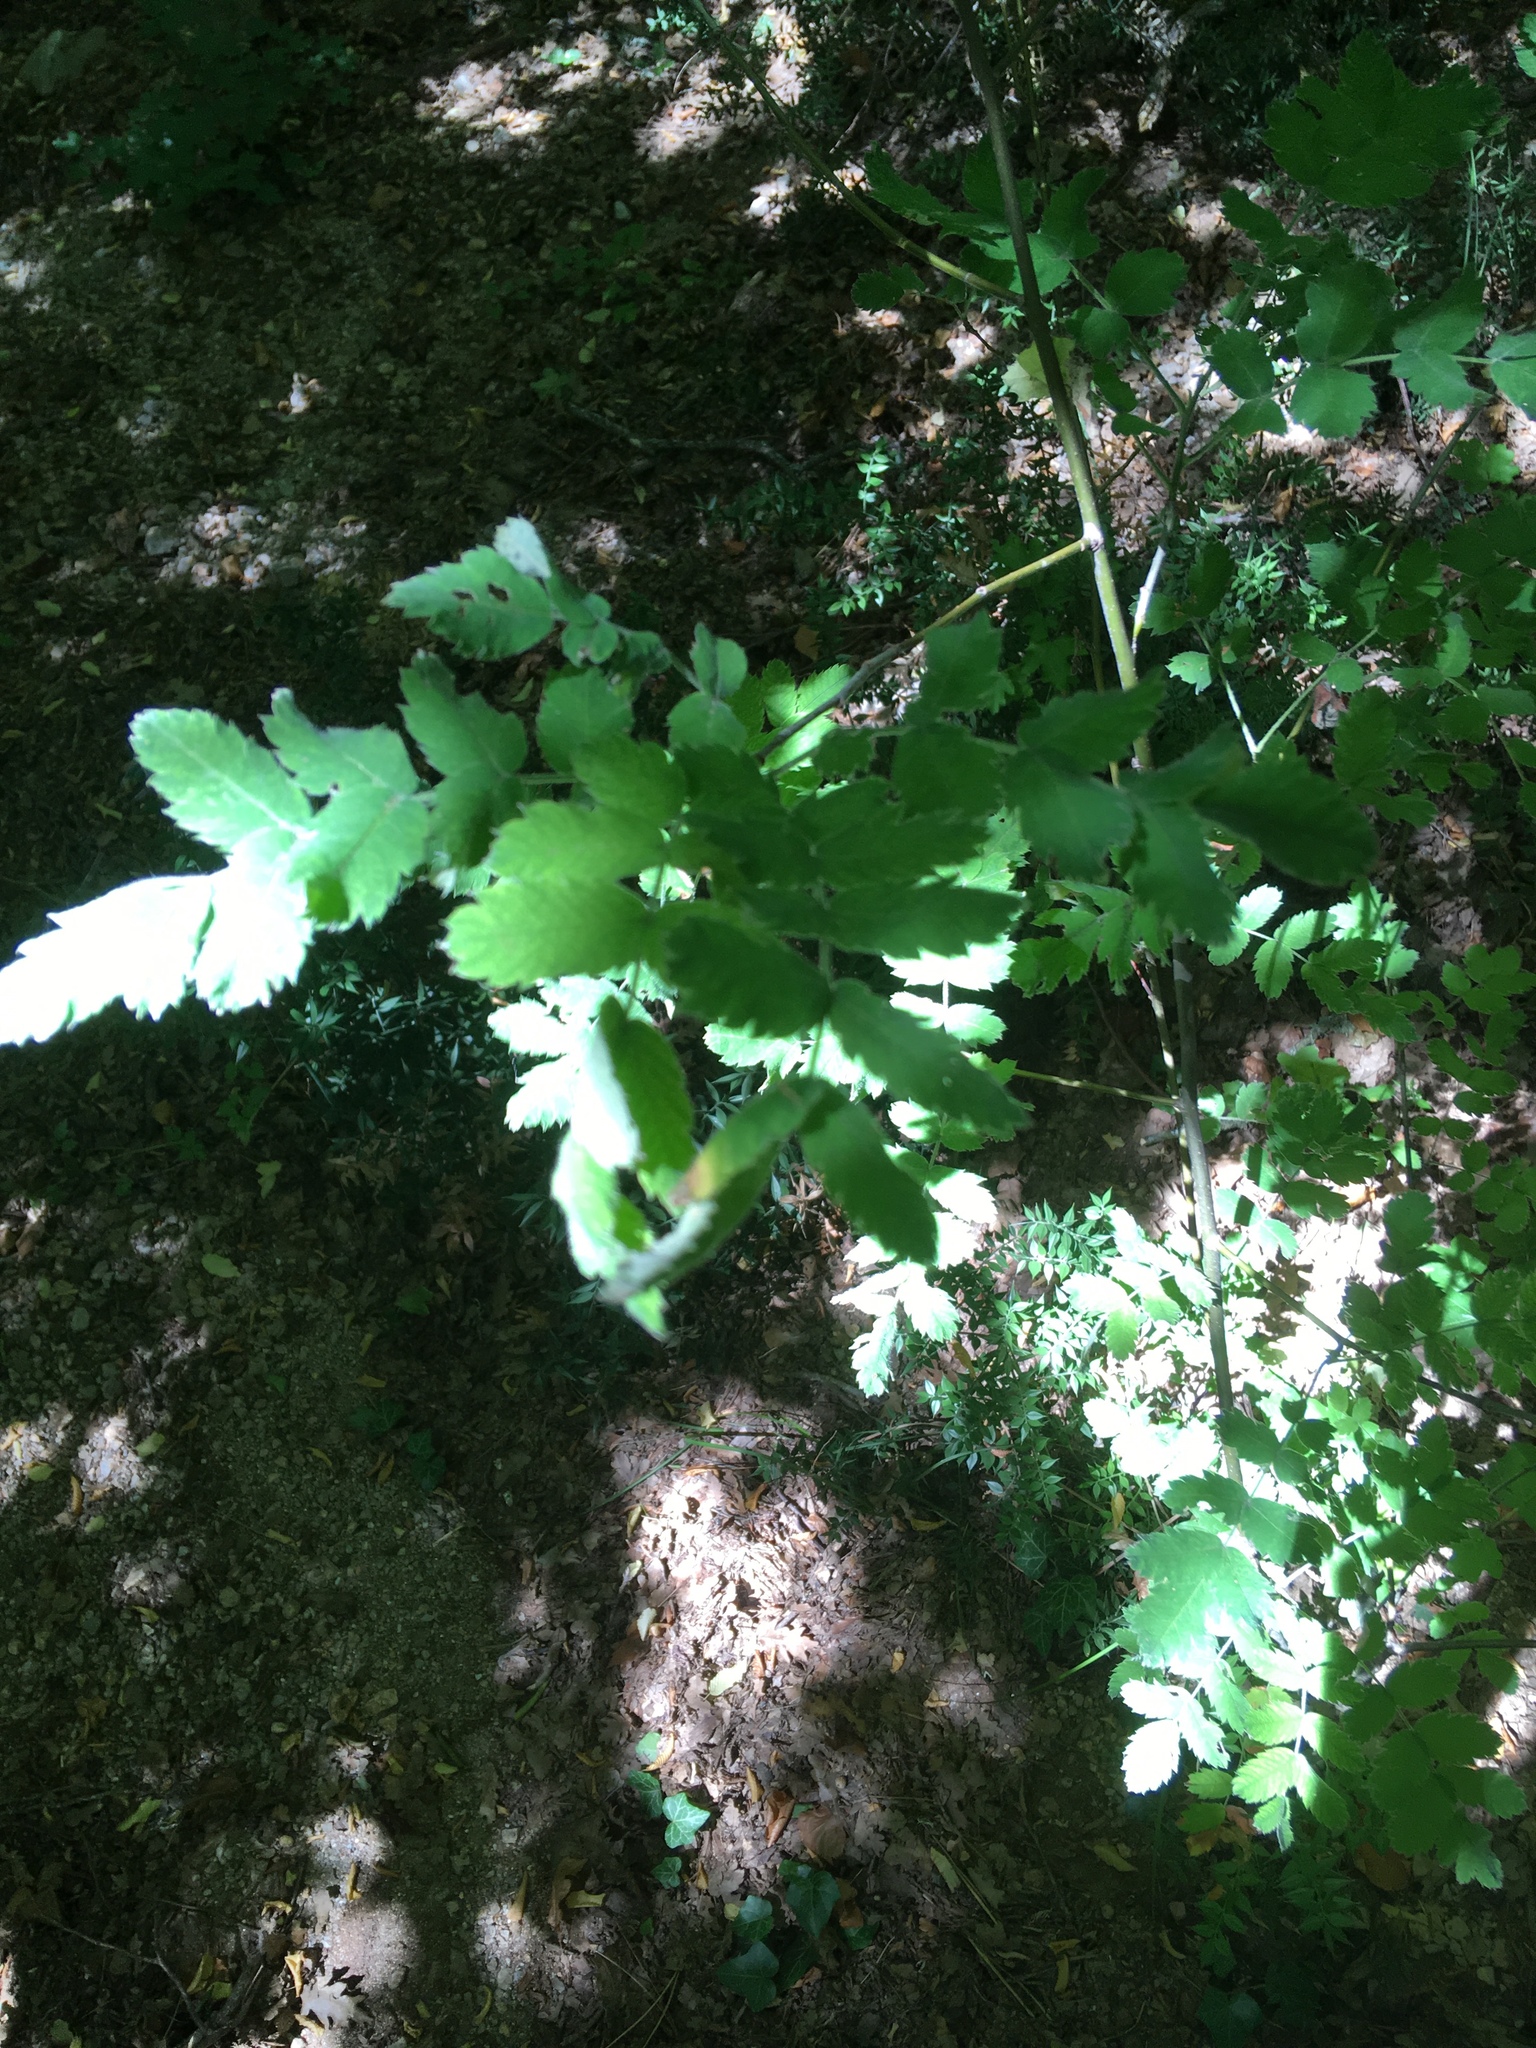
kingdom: Plantae
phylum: Tracheophyta
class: Magnoliopsida
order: Rosales
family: Rosaceae
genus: Sorbus
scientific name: Sorbus aucuparia
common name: Rowan
